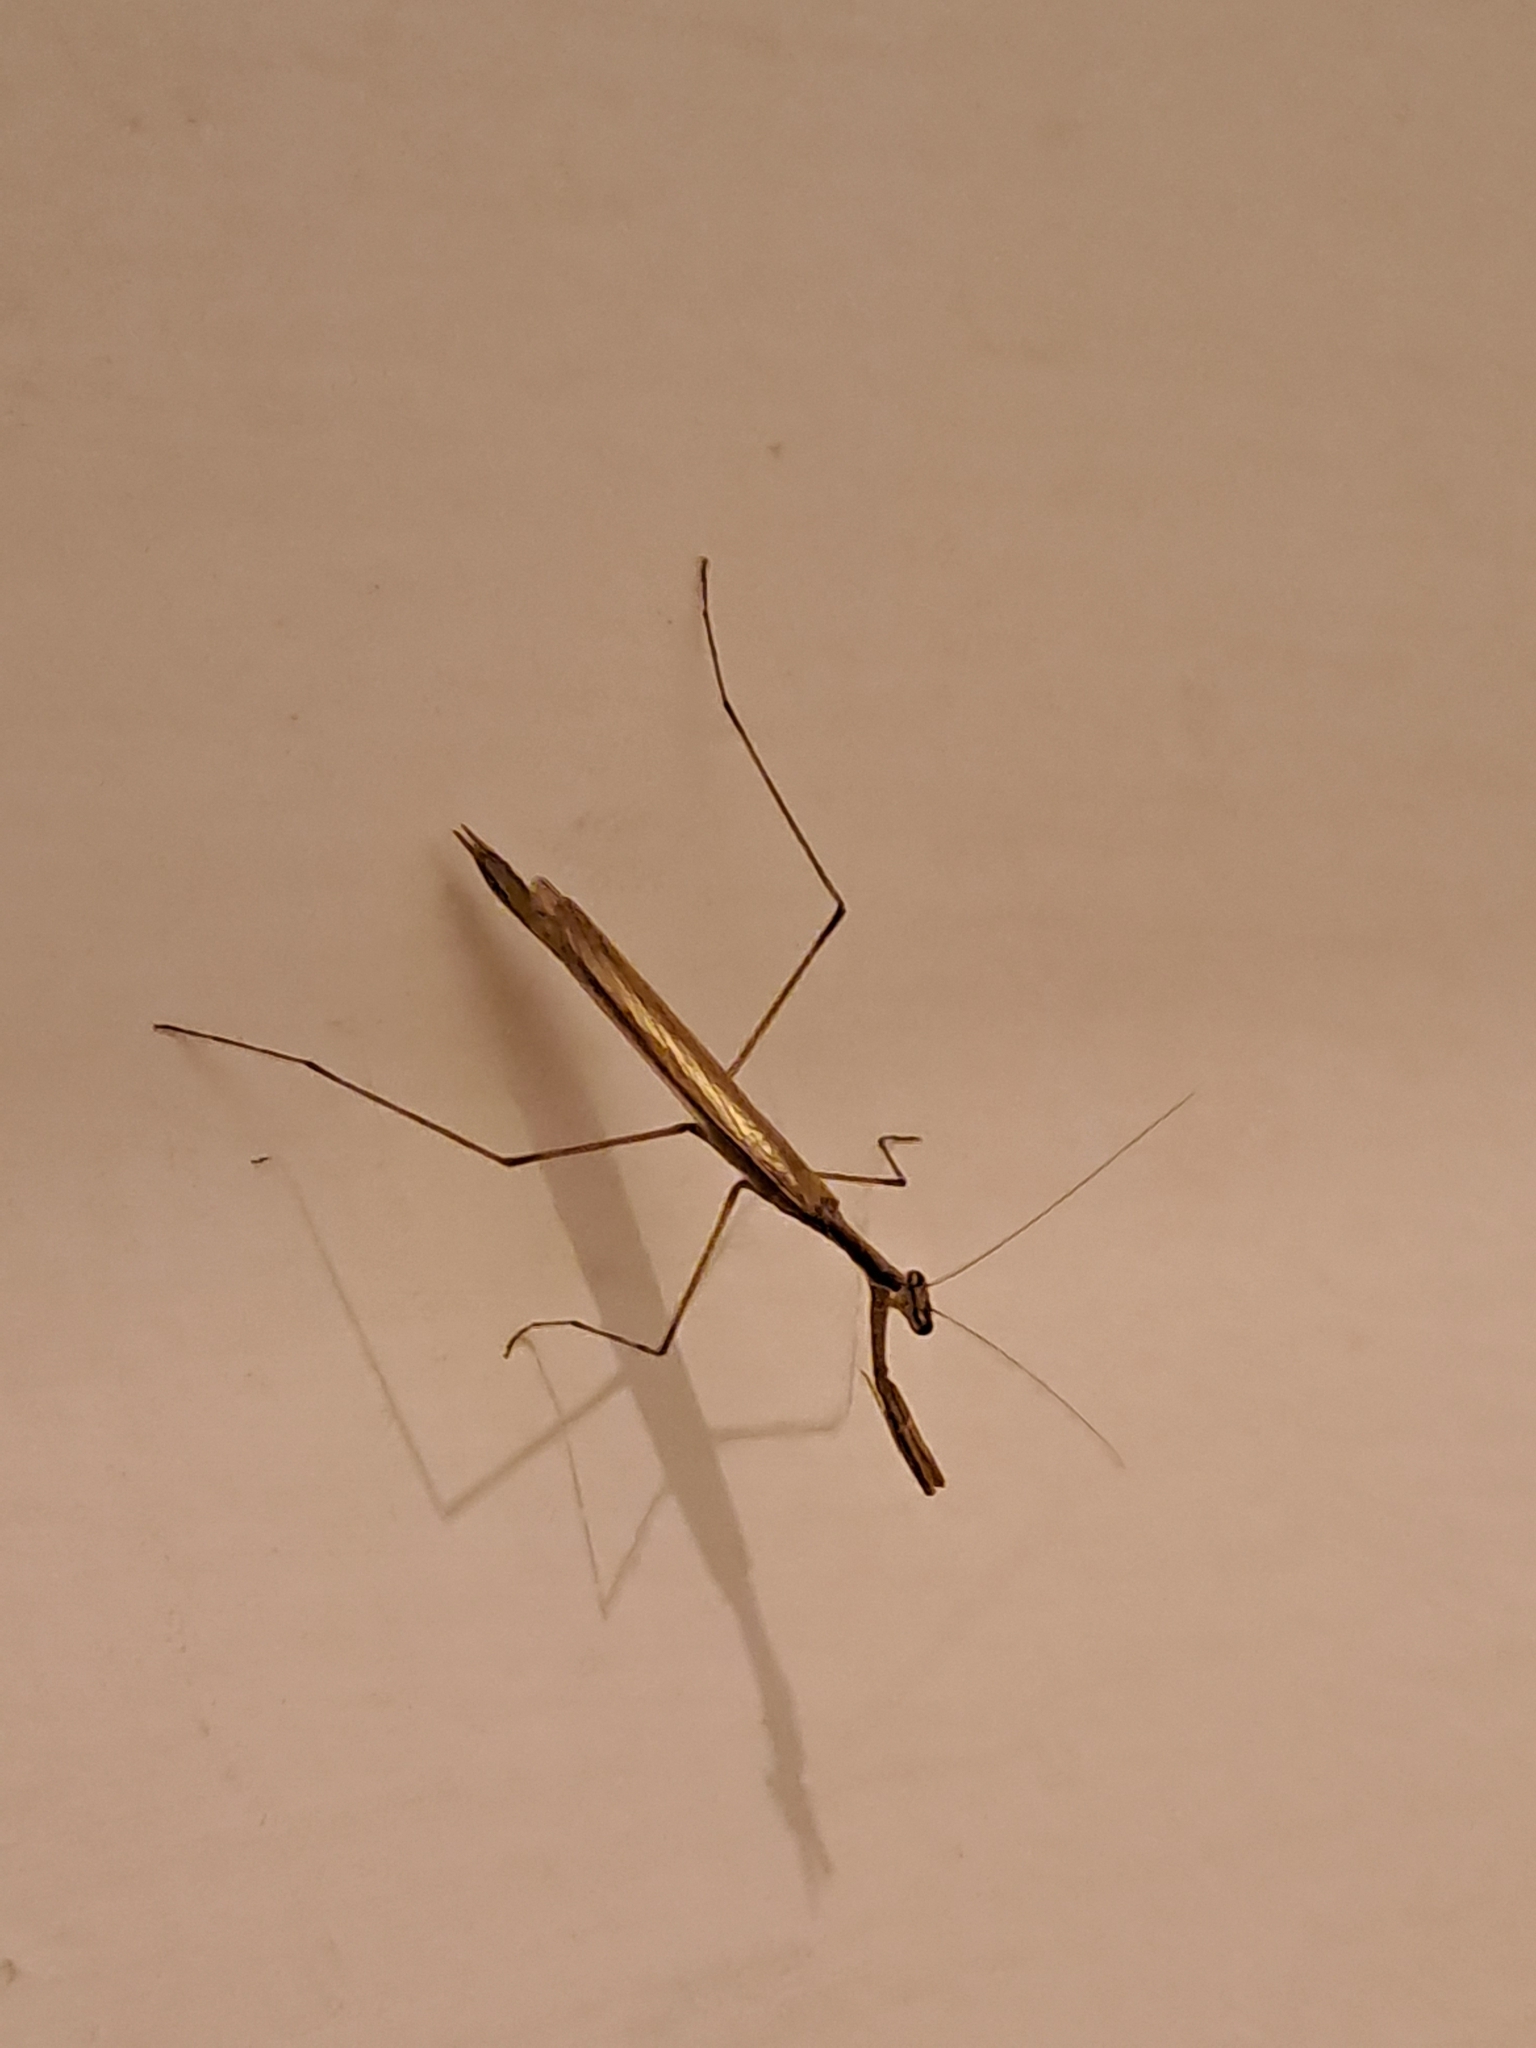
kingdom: Animalia
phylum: Arthropoda
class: Insecta
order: Mantodea
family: Thespidae
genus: Musonia
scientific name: Musonia
